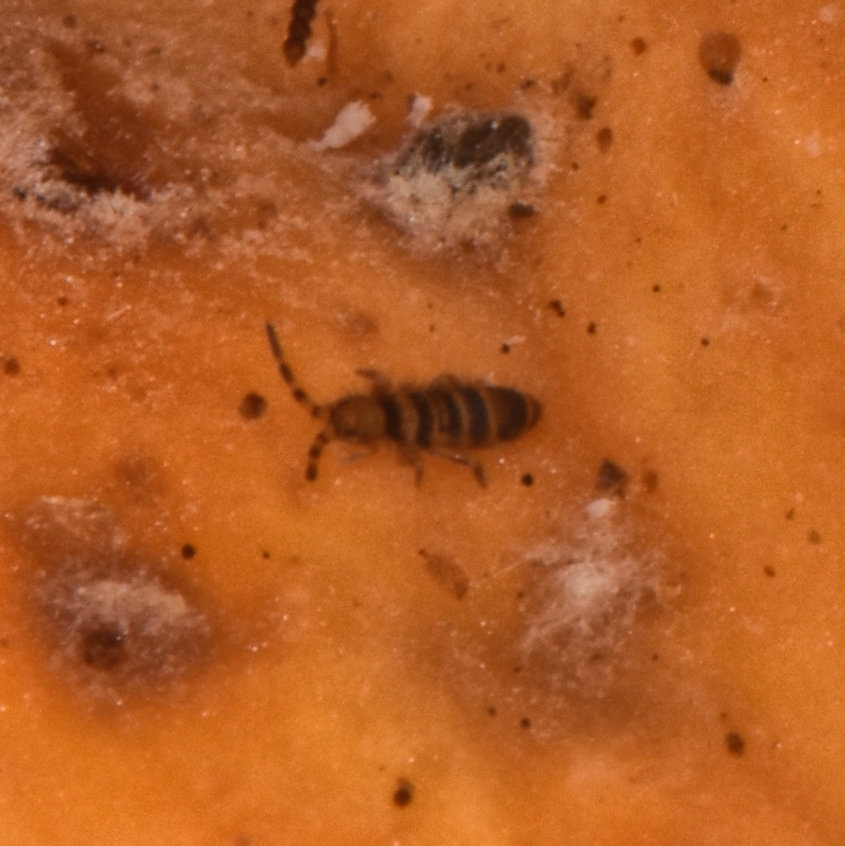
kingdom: Animalia
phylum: Arthropoda
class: Collembola
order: Entomobryomorpha
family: Orchesellidae
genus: Orchesella
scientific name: Orchesella hexfasciata
